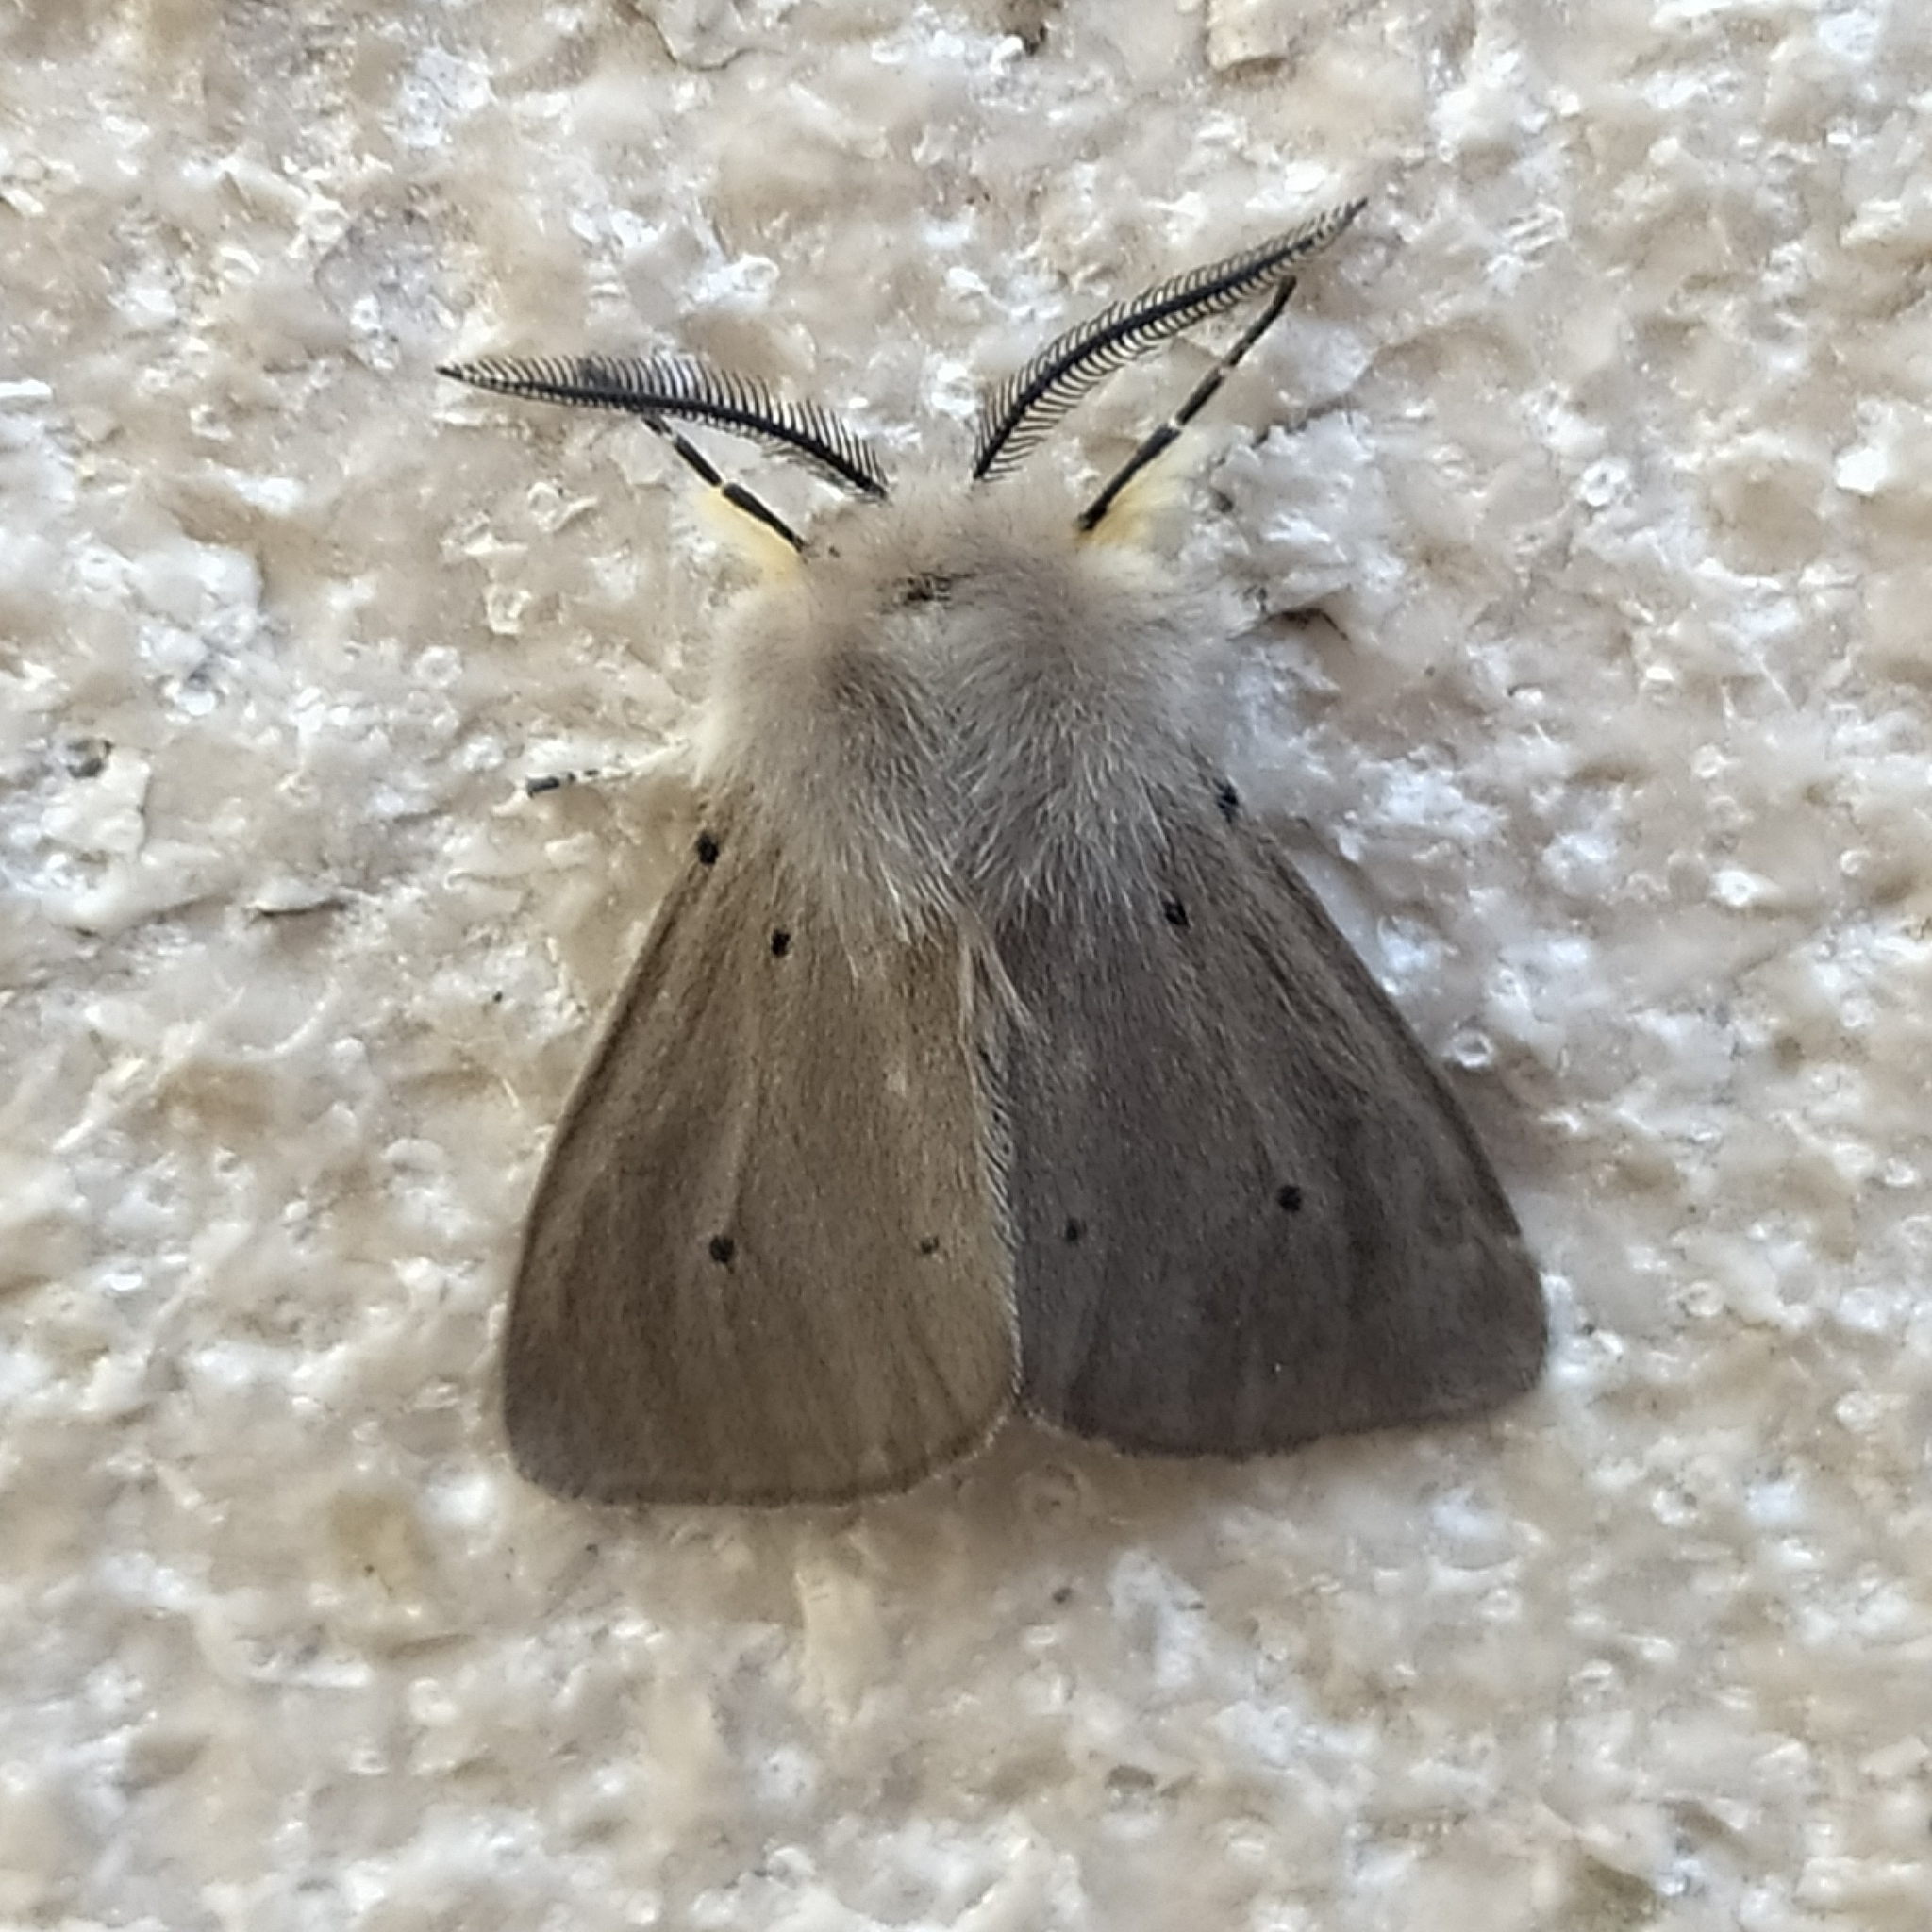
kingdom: Animalia
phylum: Arthropoda
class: Insecta
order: Lepidoptera
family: Erebidae
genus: Diaphora
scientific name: Diaphora mendica
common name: Muslin moth
